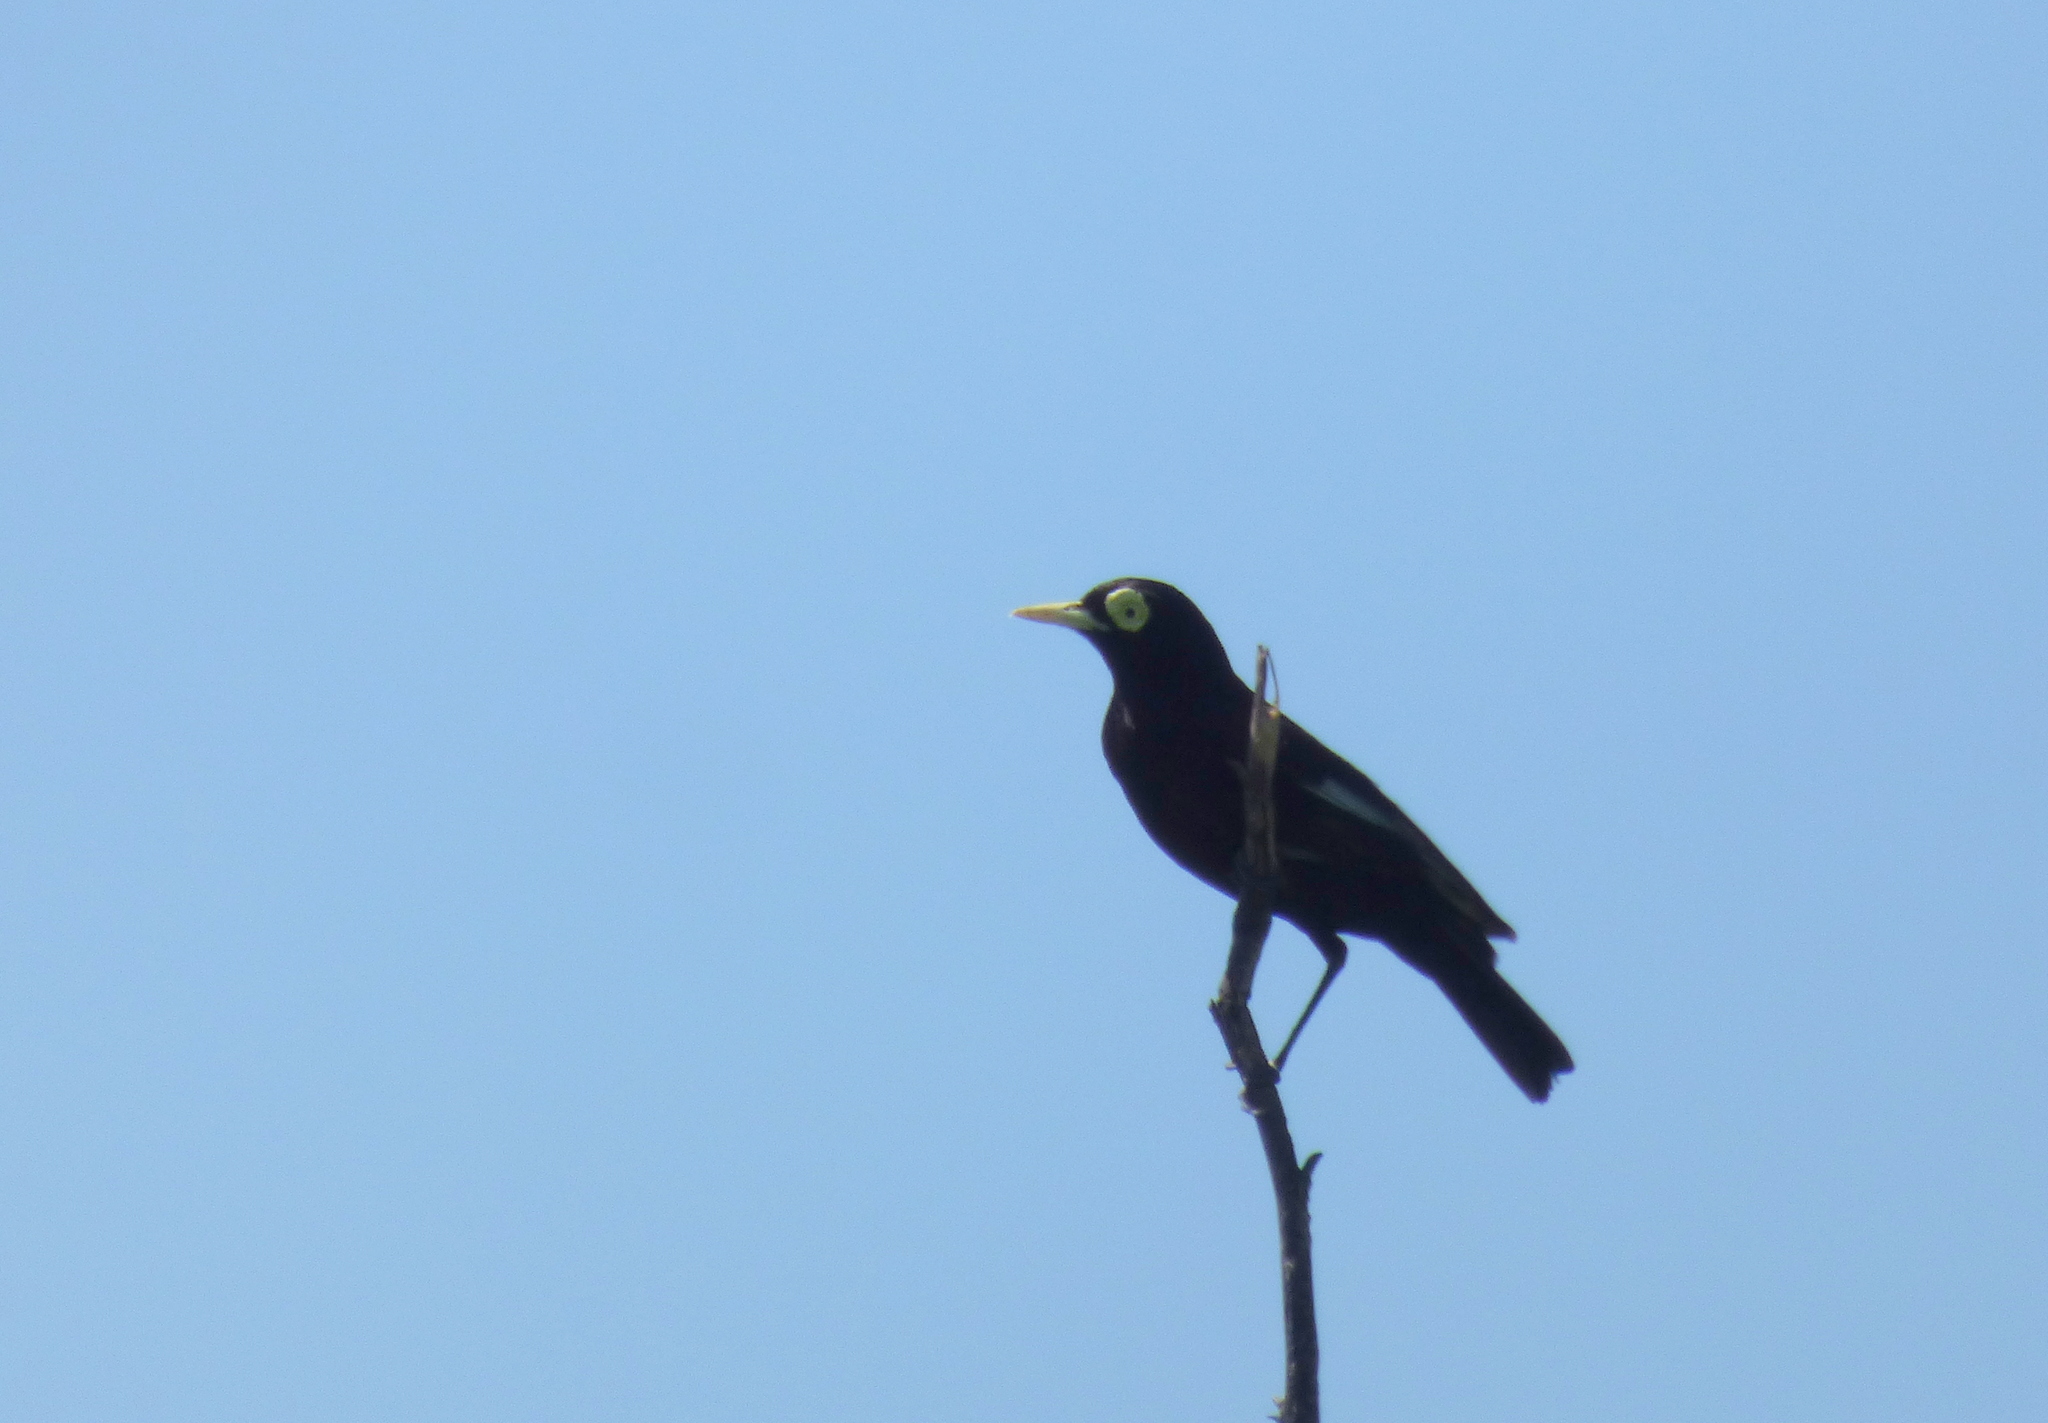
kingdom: Animalia
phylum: Chordata
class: Aves
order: Passeriformes
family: Tyrannidae
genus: Hymenops
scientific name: Hymenops perspicillatus
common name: Spectacled tyrant
